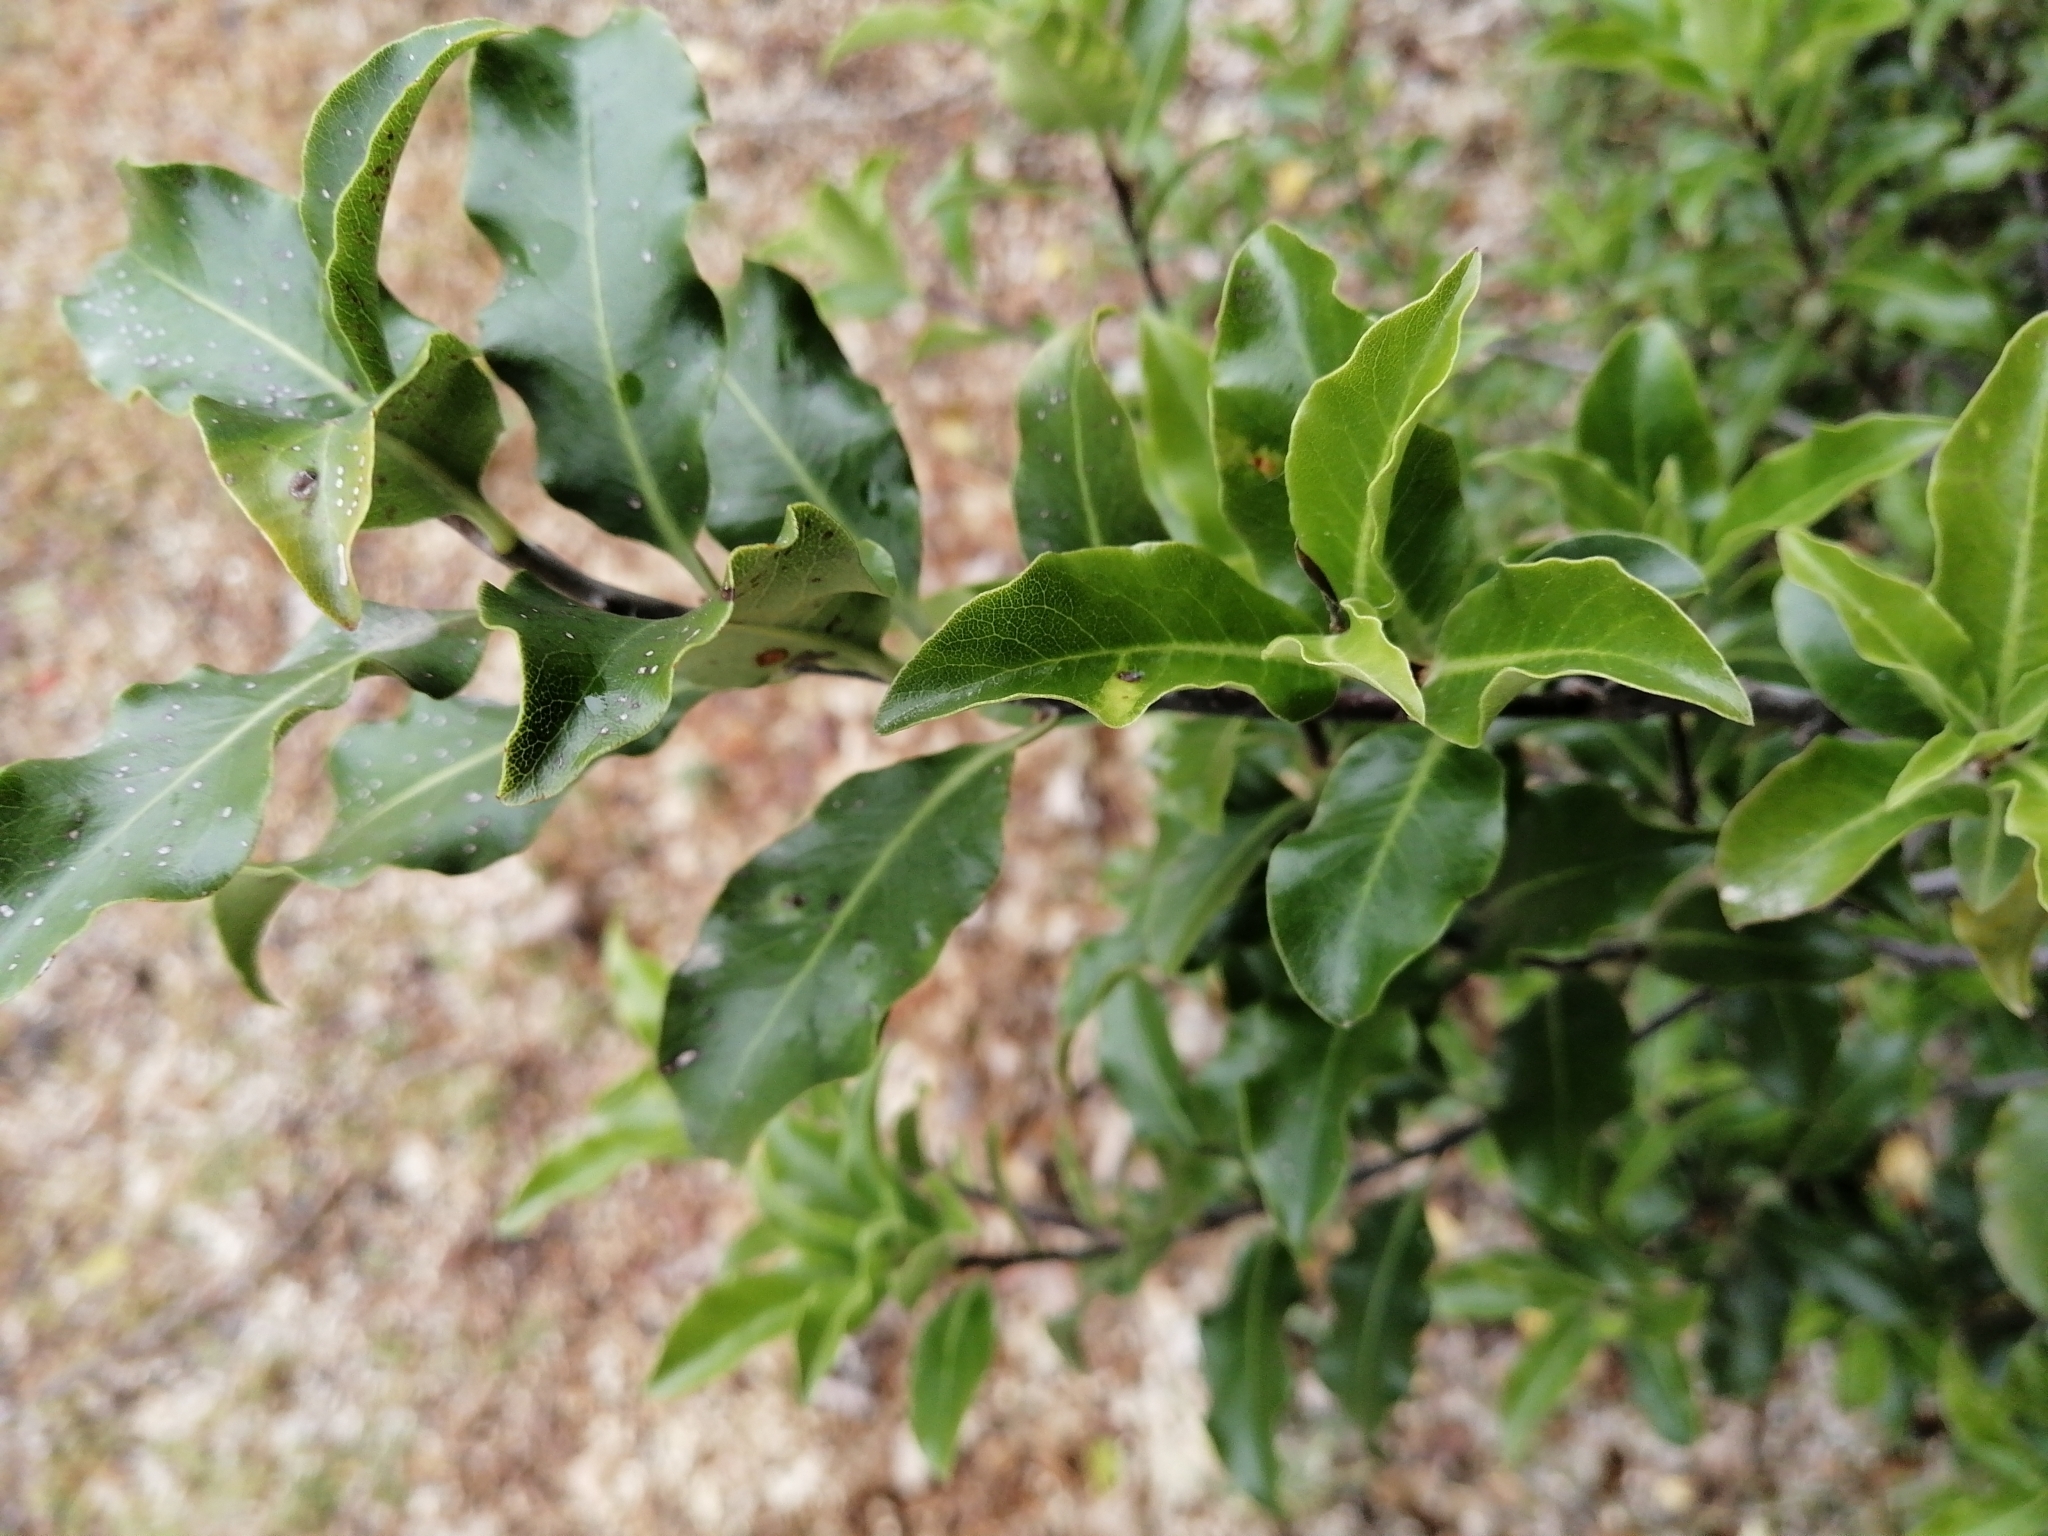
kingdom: Plantae
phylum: Tracheophyta
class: Magnoliopsida
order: Apiales
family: Pittosporaceae
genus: Pittosporum
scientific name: Pittosporum tenuifolium
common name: Kohuhu
